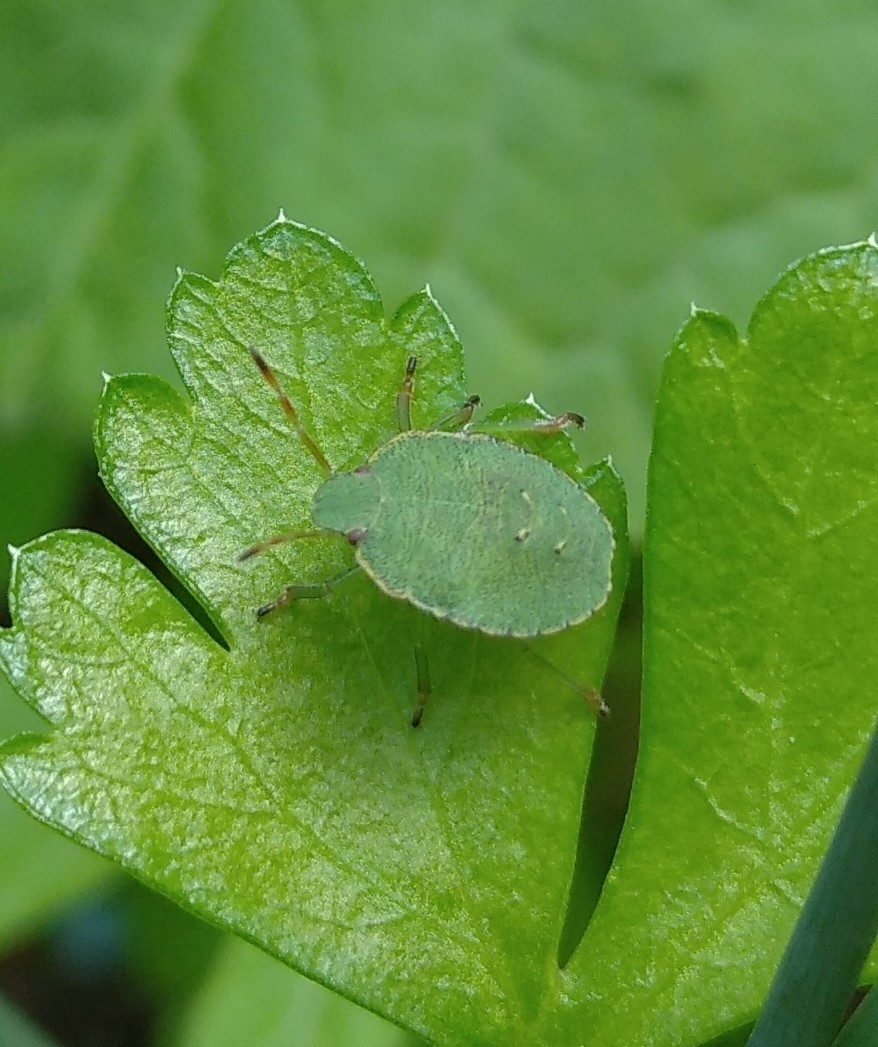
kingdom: Animalia
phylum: Arthropoda
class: Insecta
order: Hemiptera
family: Pentatomidae
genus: Palomena
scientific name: Palomena prasina
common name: Green shieldbug
